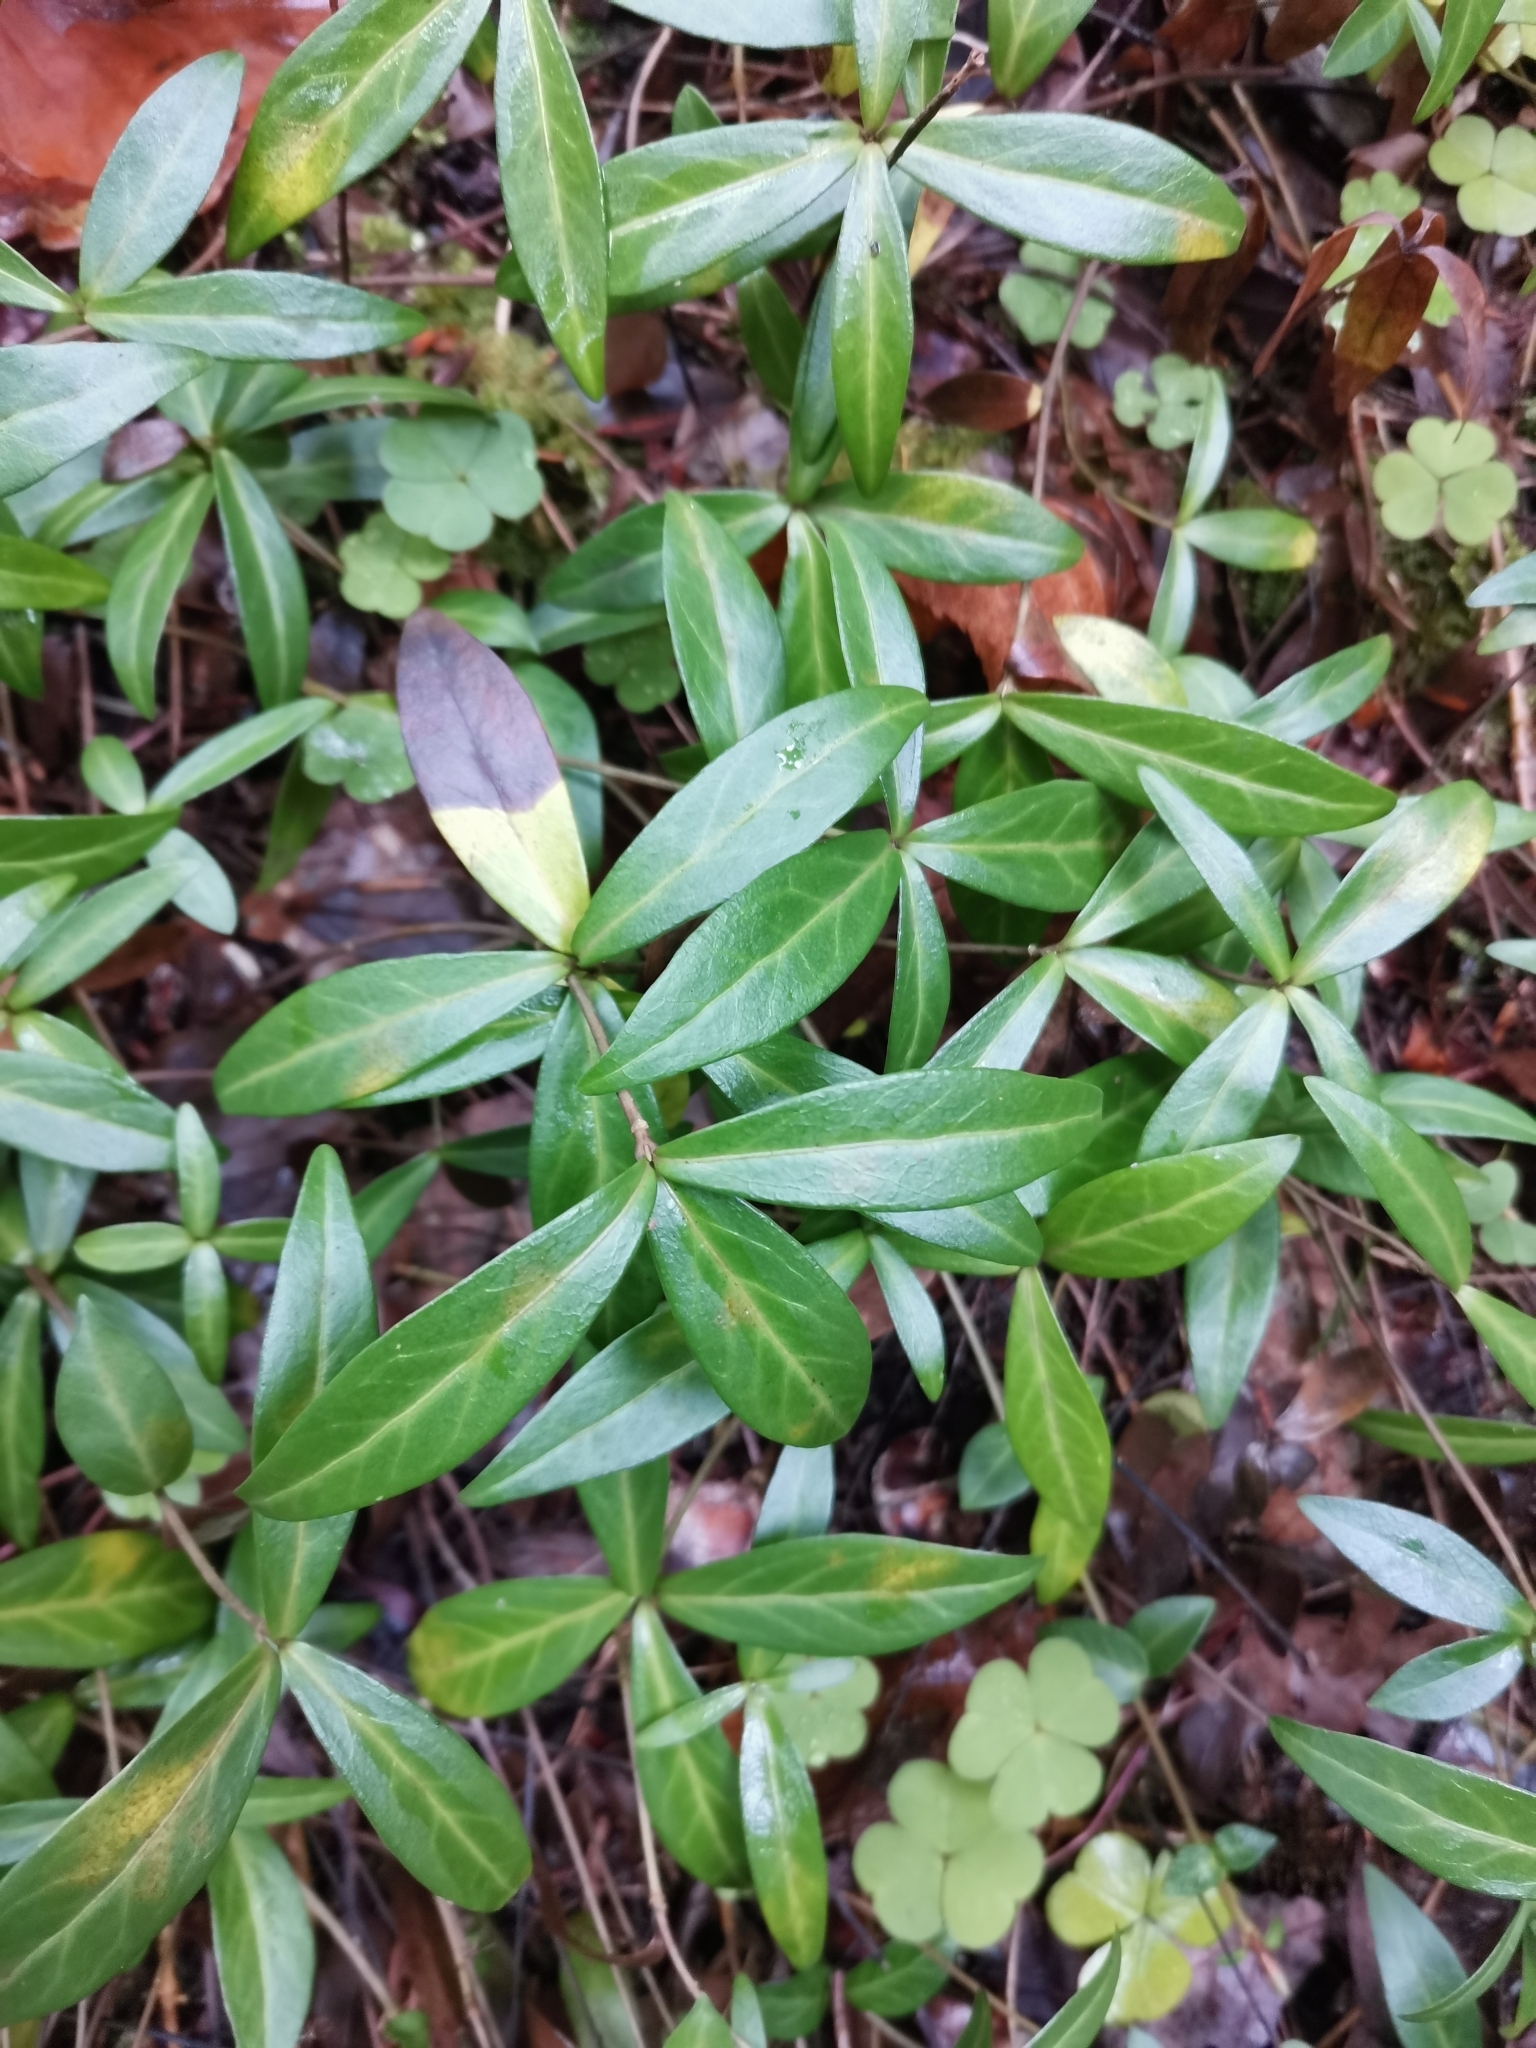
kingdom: Plantae
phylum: Tracheophyta
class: Magnoliopsida
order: Gentianales
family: Apocynaceae
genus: Vinca
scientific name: Vinca minor
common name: Lesser periwinkle
